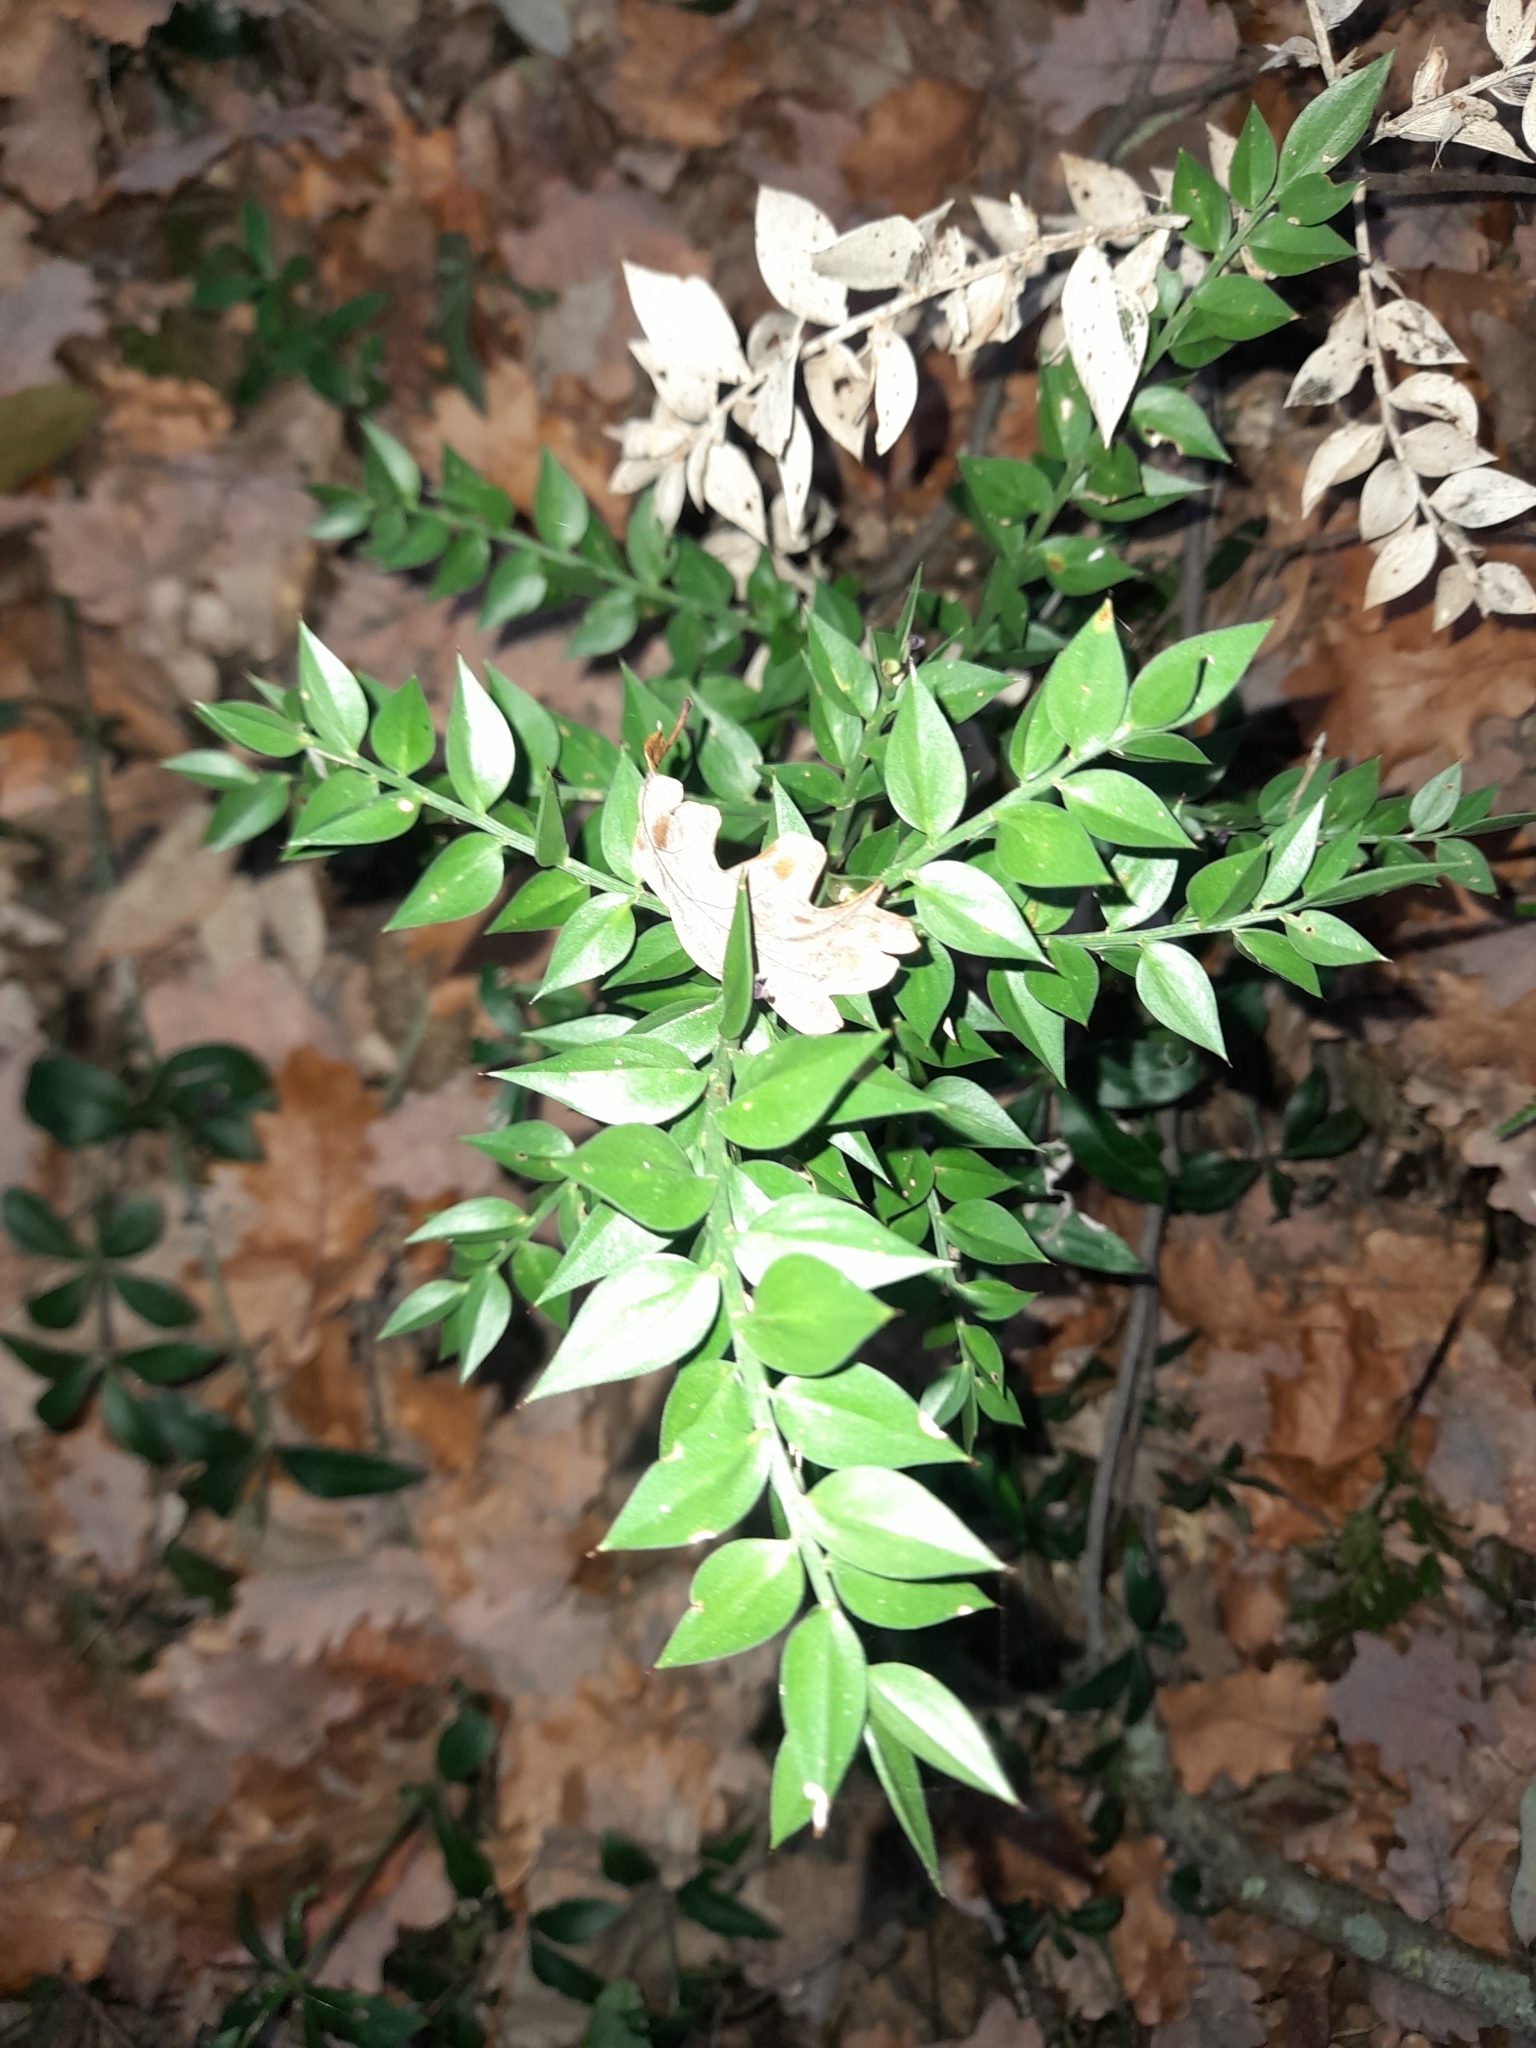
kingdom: Plantae
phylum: Tracheophyta
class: Liliopsida
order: Asparagales
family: Asparagaceae
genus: Ruscus
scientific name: Ruscus aculeatus
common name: Butcher's-broom
